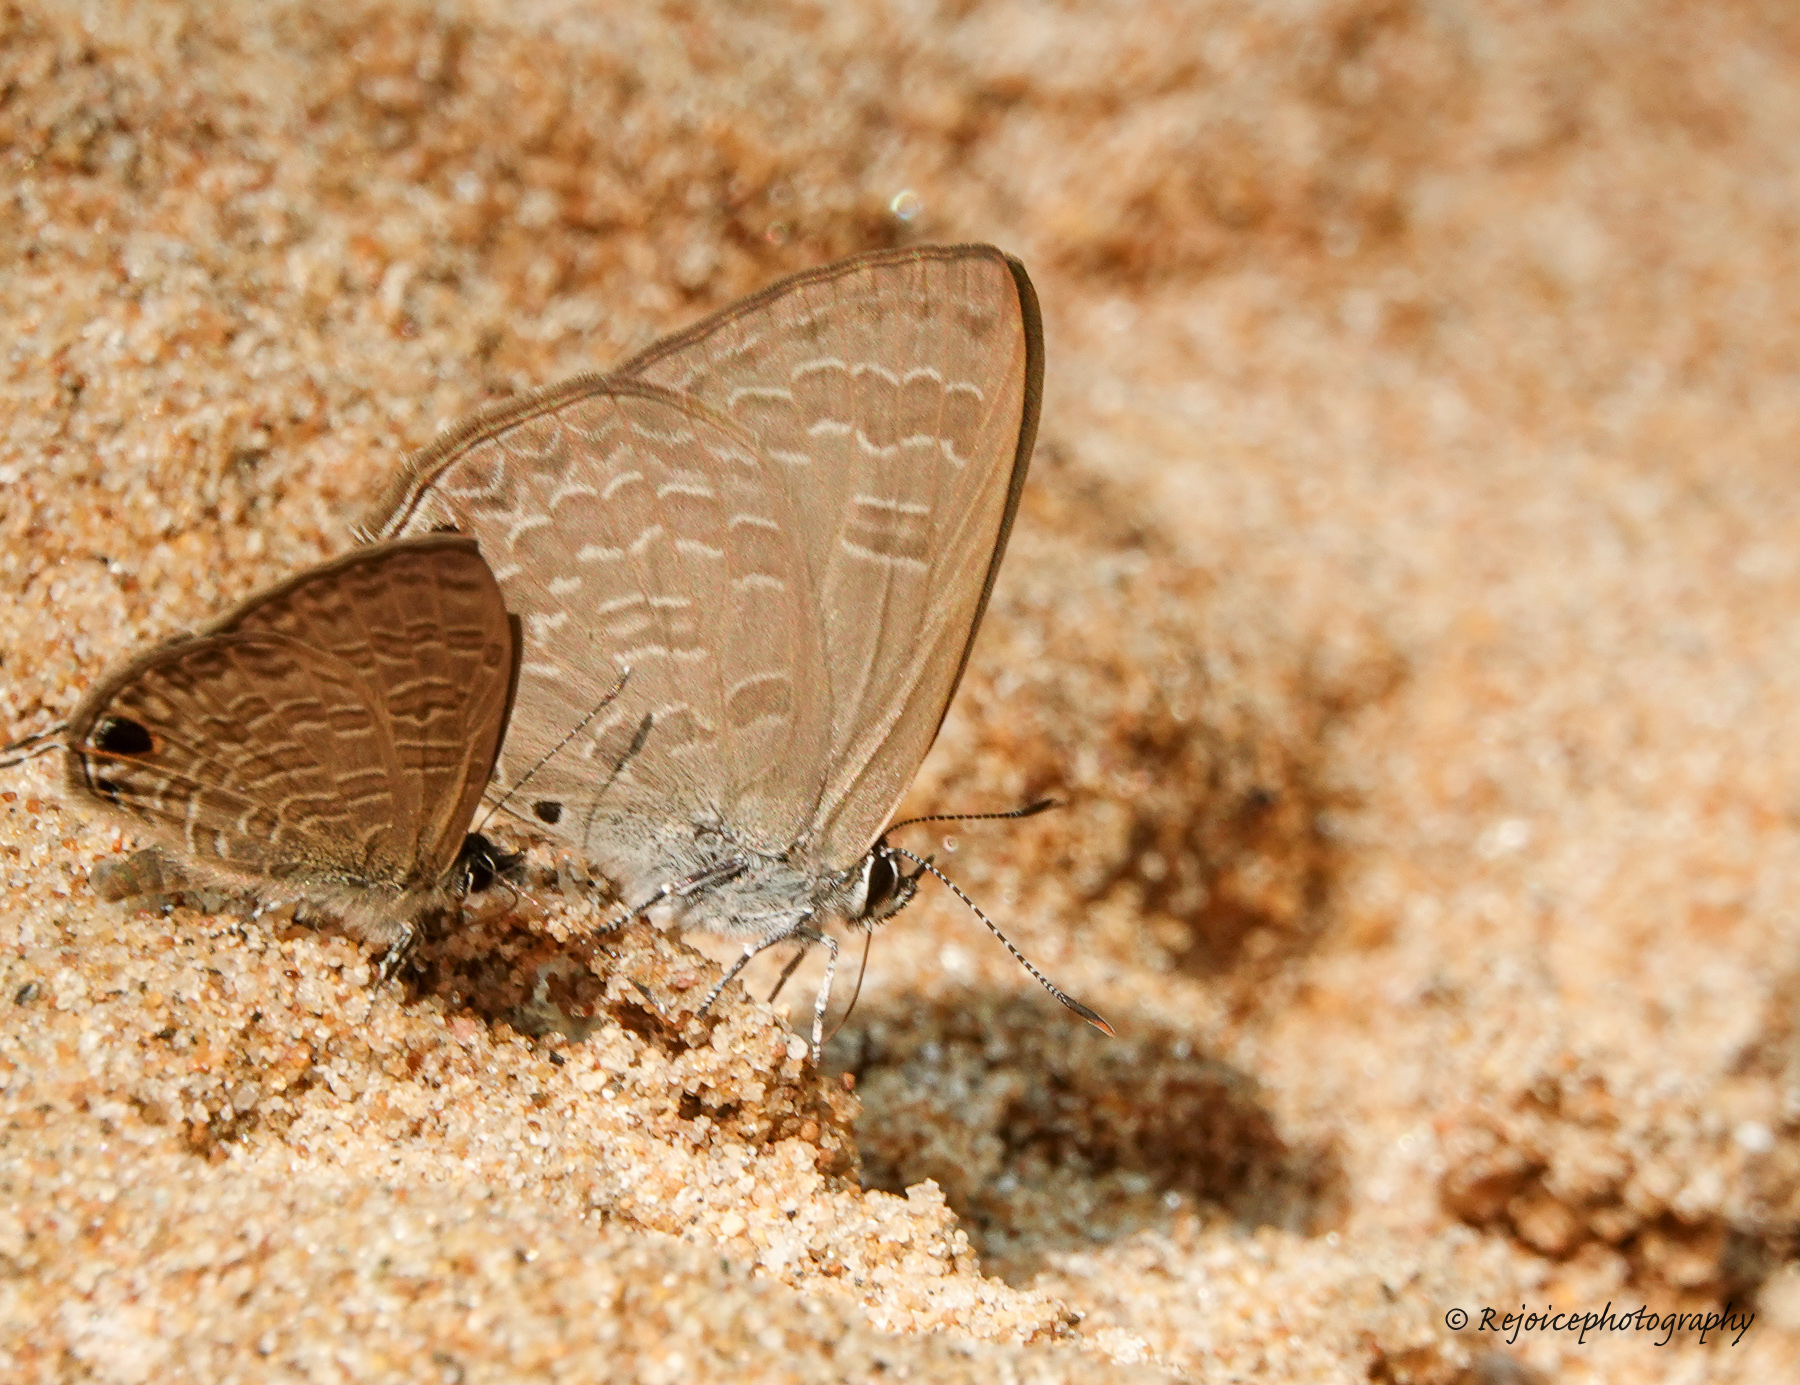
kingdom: Animalia
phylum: Arthropoda
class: Insecta
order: Lepidoptera
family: Lycaenidae
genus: Anthene
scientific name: Anthene emolus
